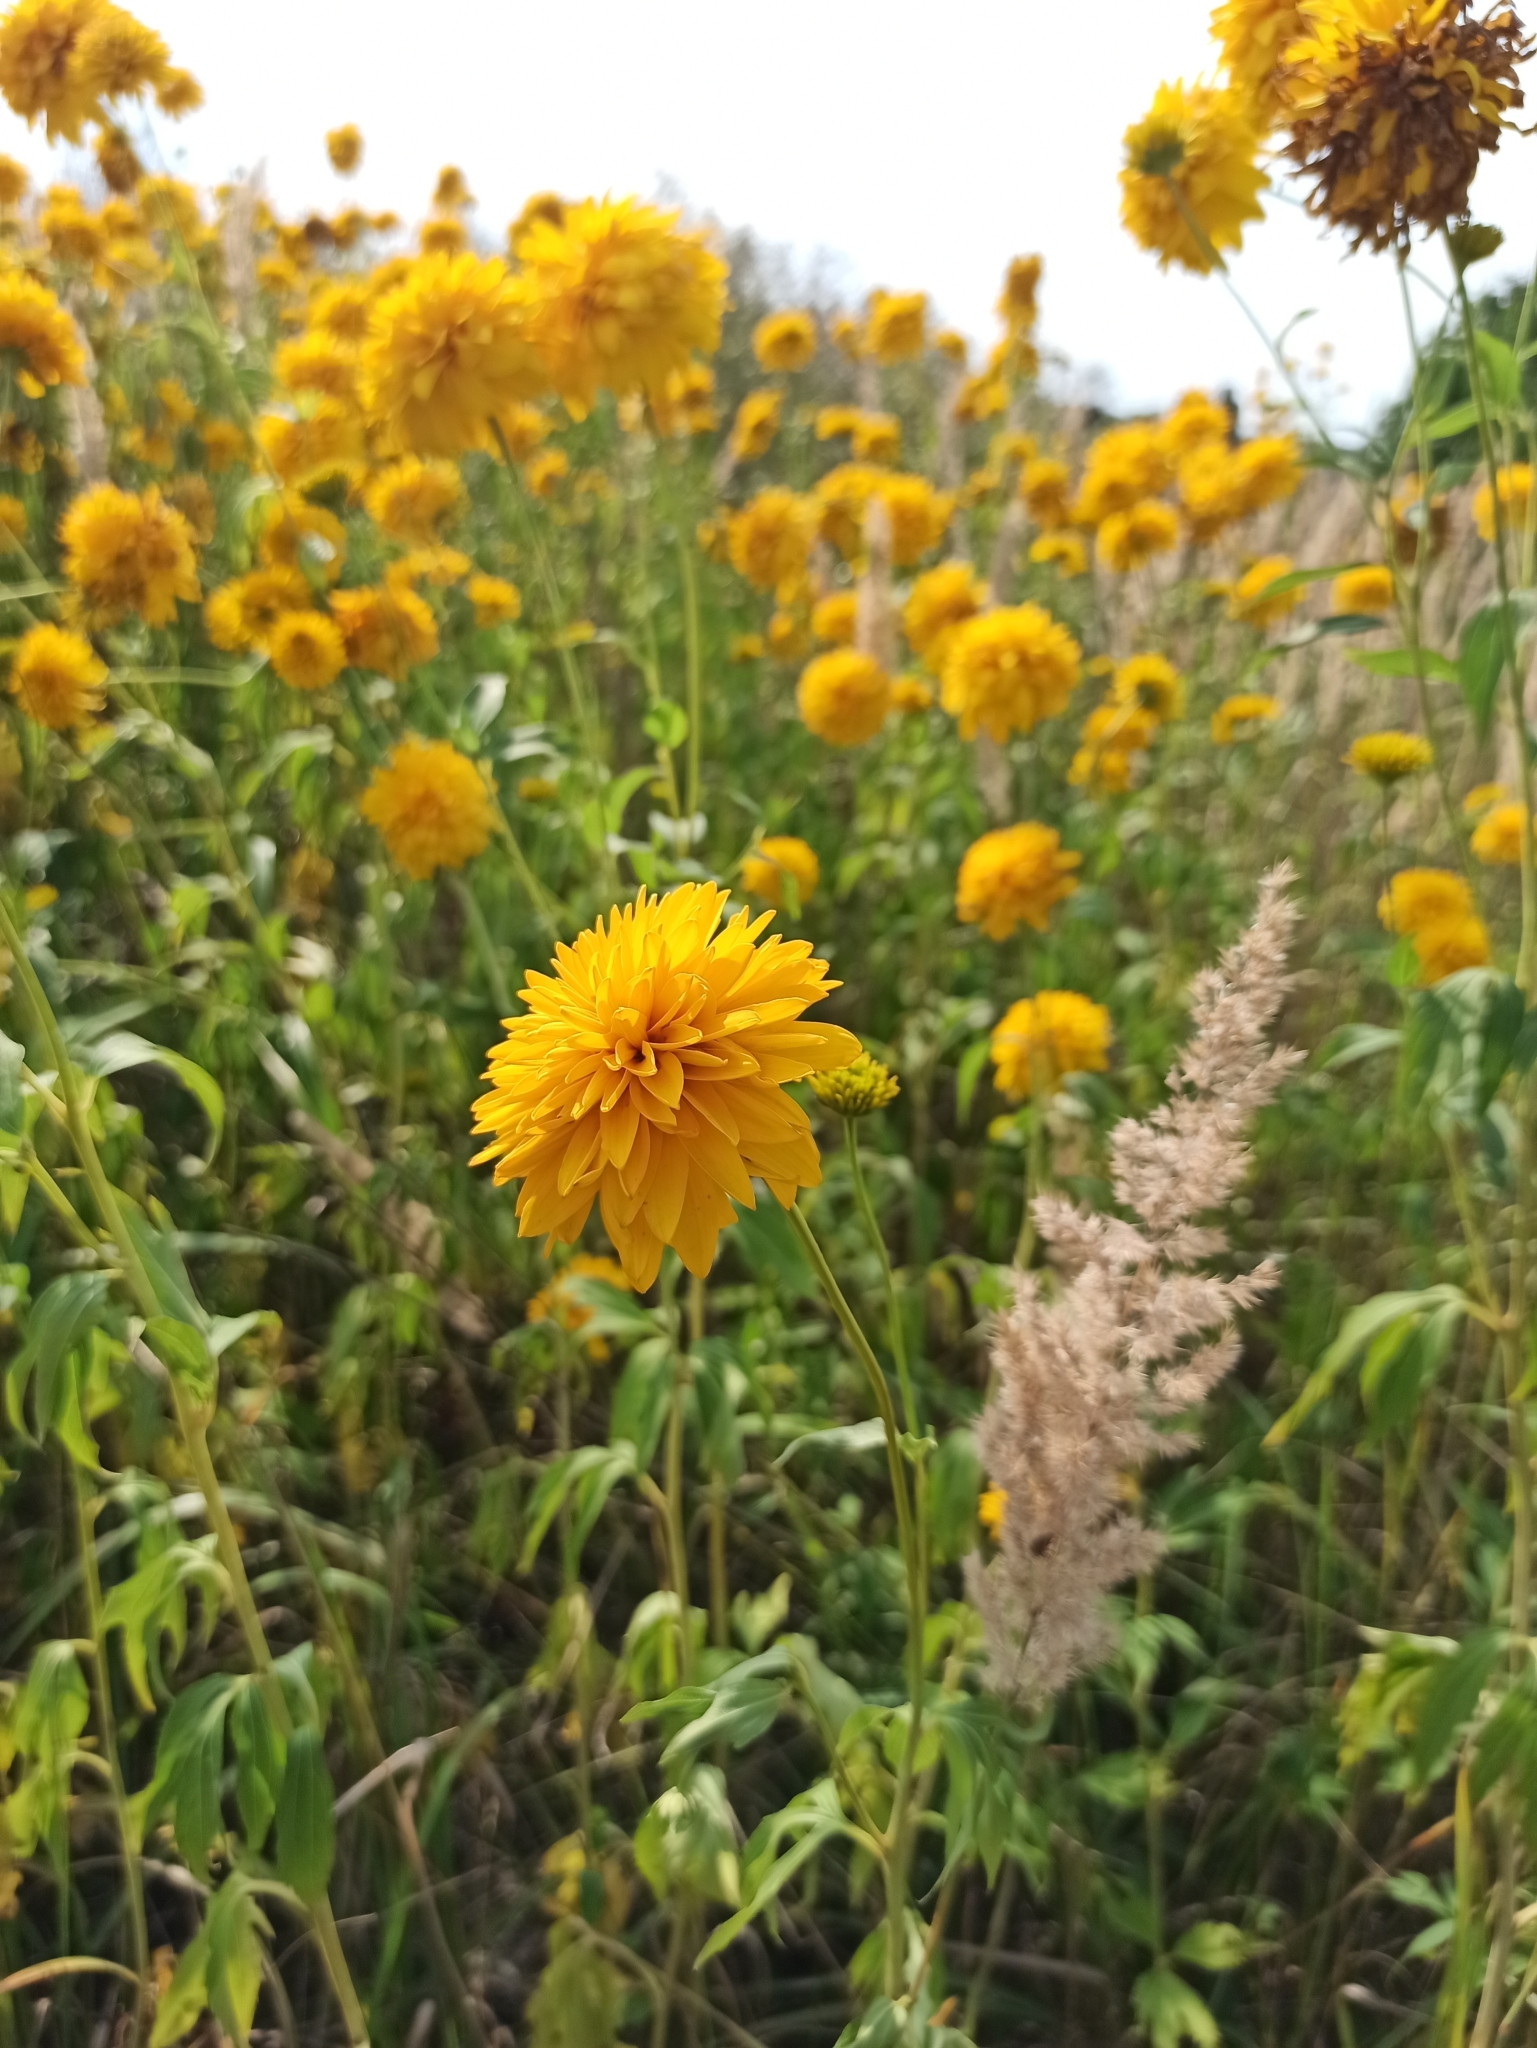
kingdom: Plantae
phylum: Tracheophyta
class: Magnoliopsida
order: Asterales
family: Asteraceae
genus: Rudbeckia
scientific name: Rudbeckia laciniata
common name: Coneflower
